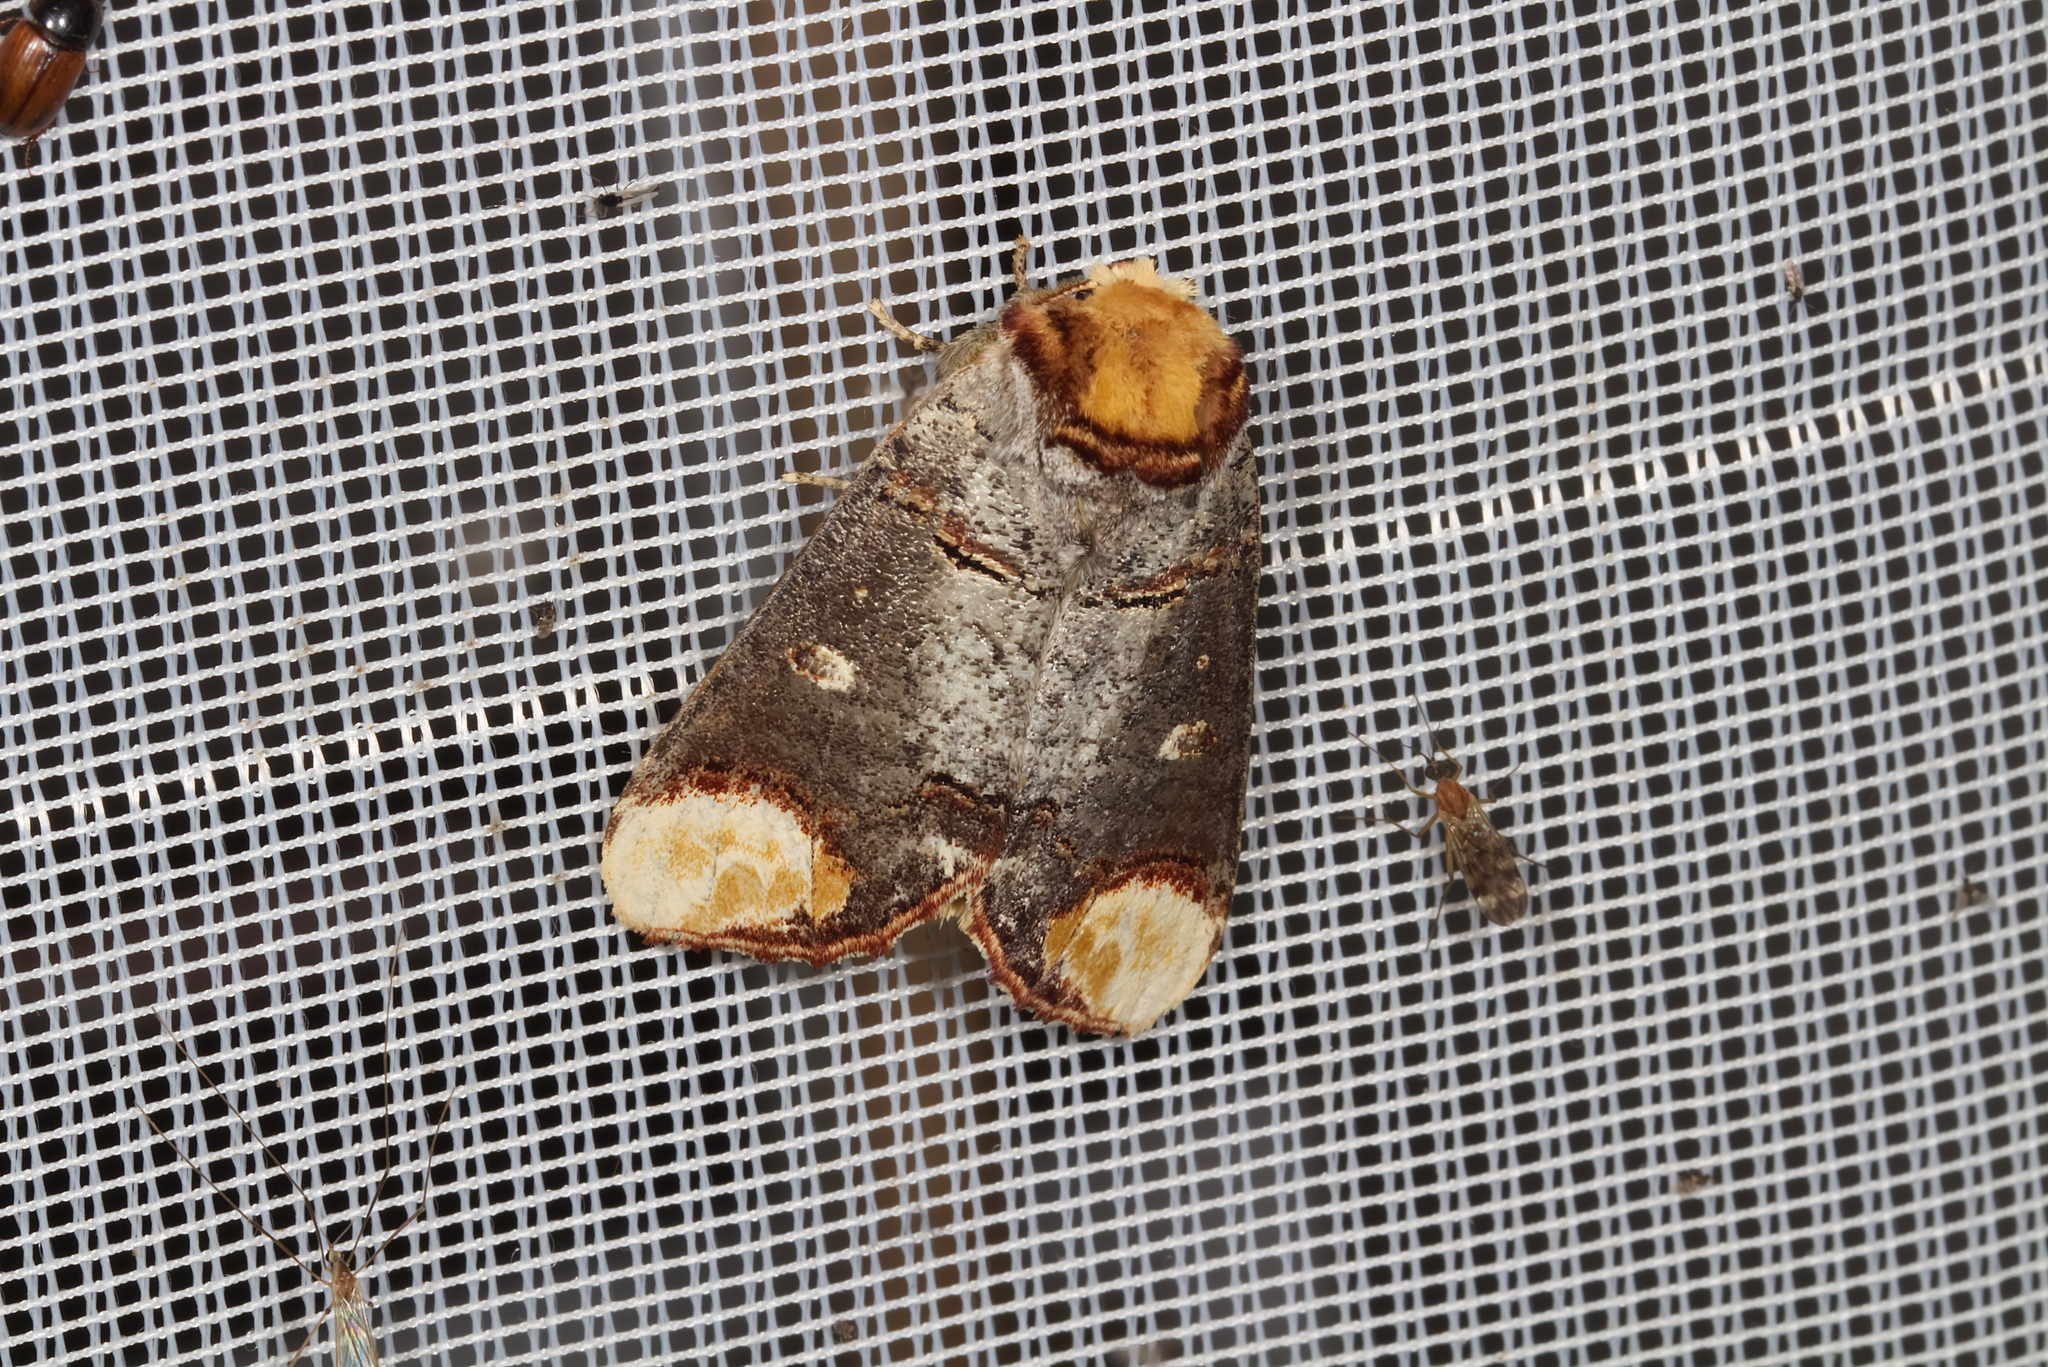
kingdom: Animalia
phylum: Arthropoda
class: Insecta
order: Lepidoptera
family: Notodontidae
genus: Phalera
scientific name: Phalera bucephala
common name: Buff-tip
